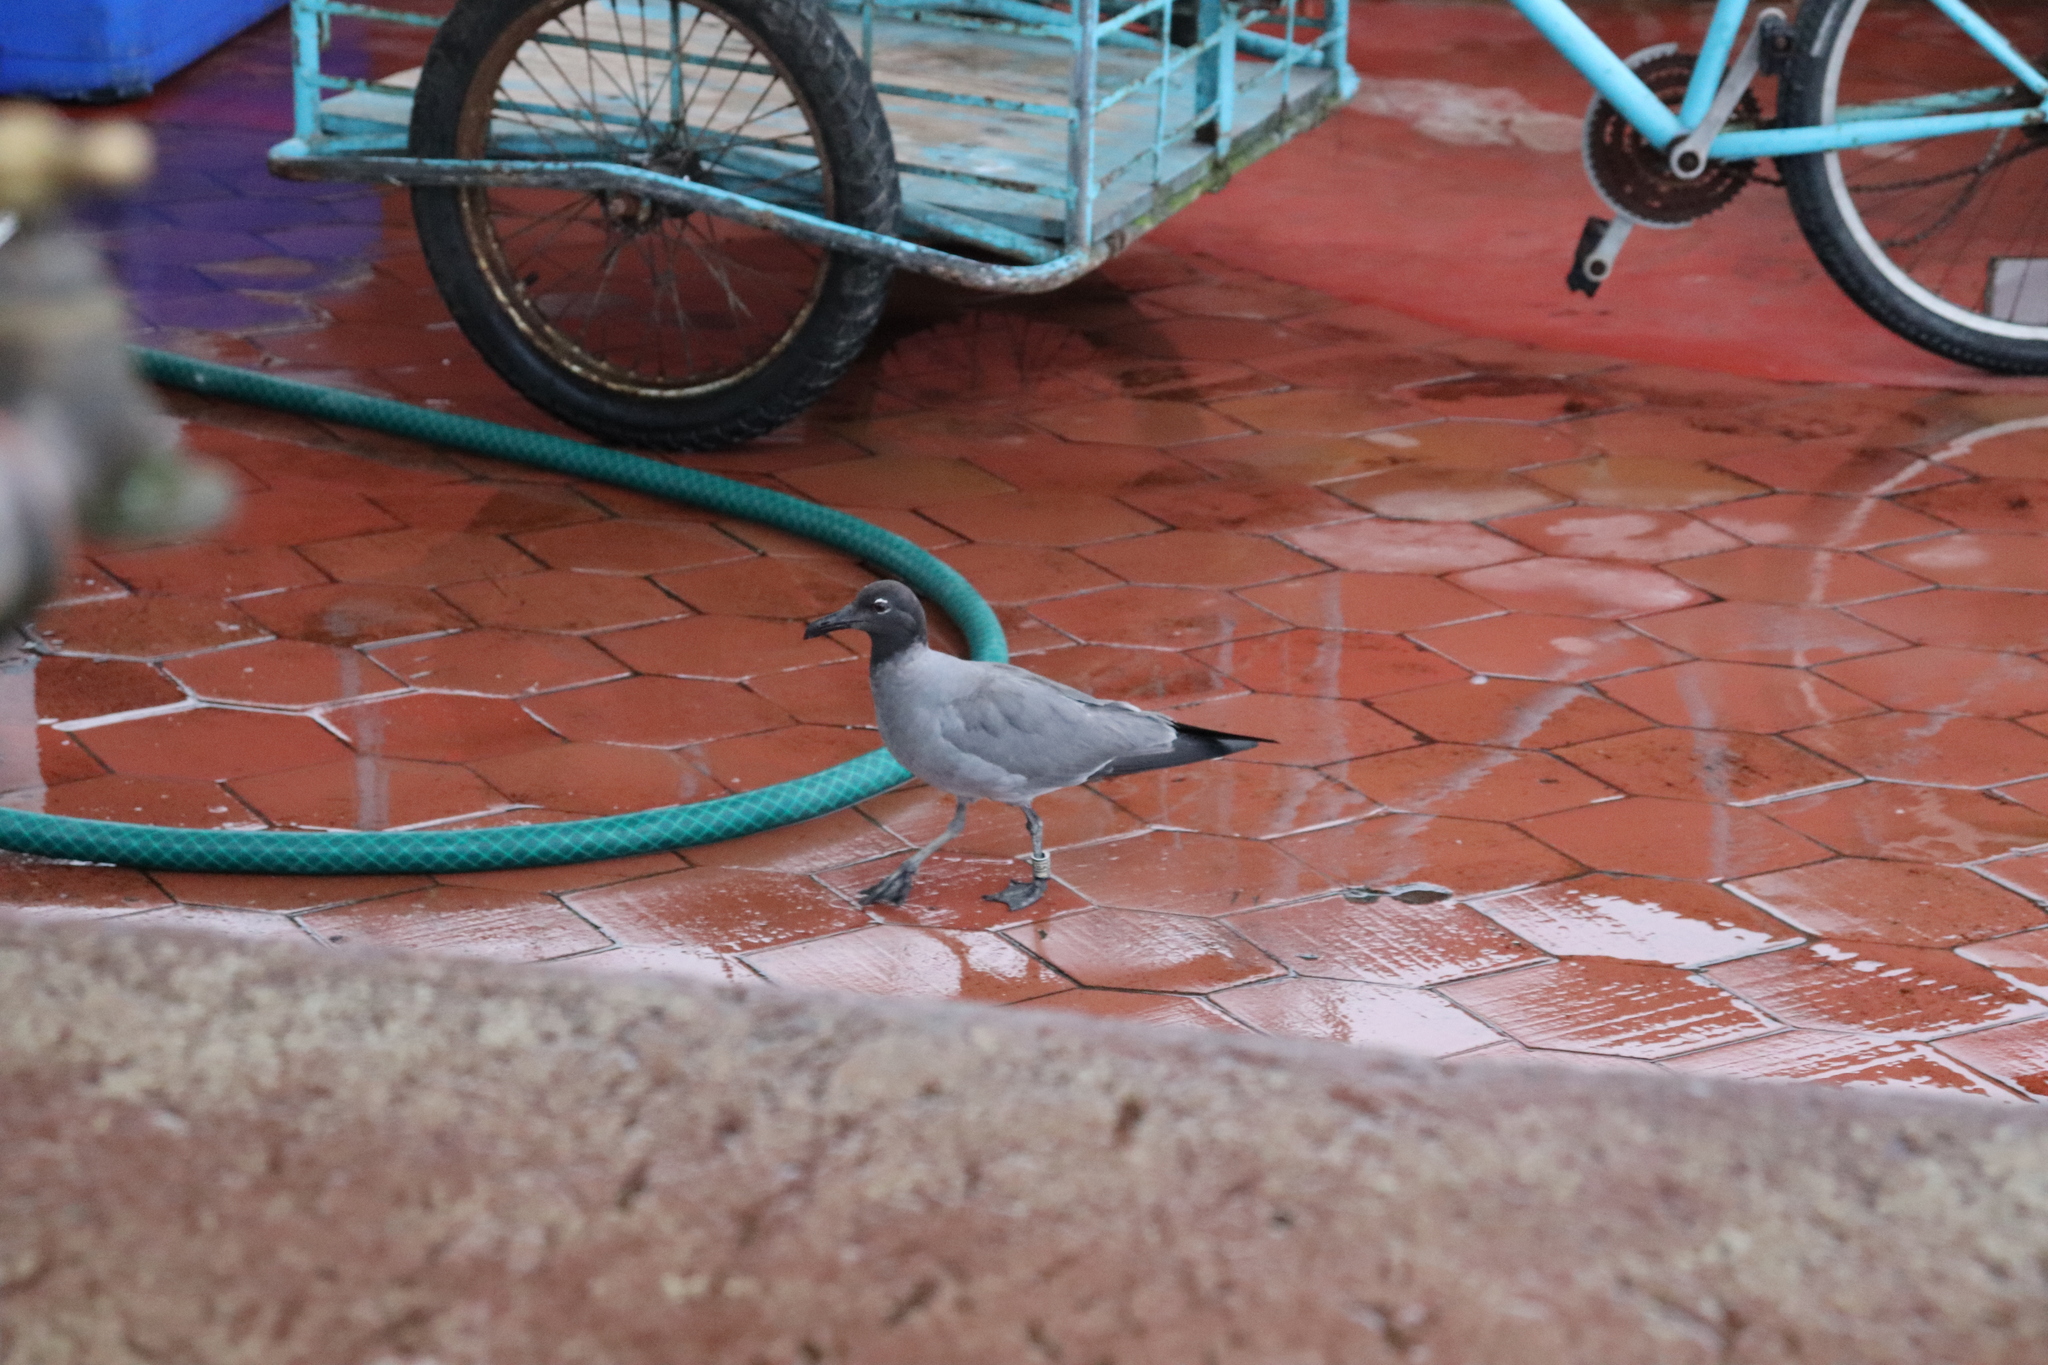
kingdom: Animalia
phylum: Chordata
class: Aves
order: Charadriiformes
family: Laridae
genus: Leucophaeus
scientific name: Leucophaeus fuliginosus
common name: Lava gull
